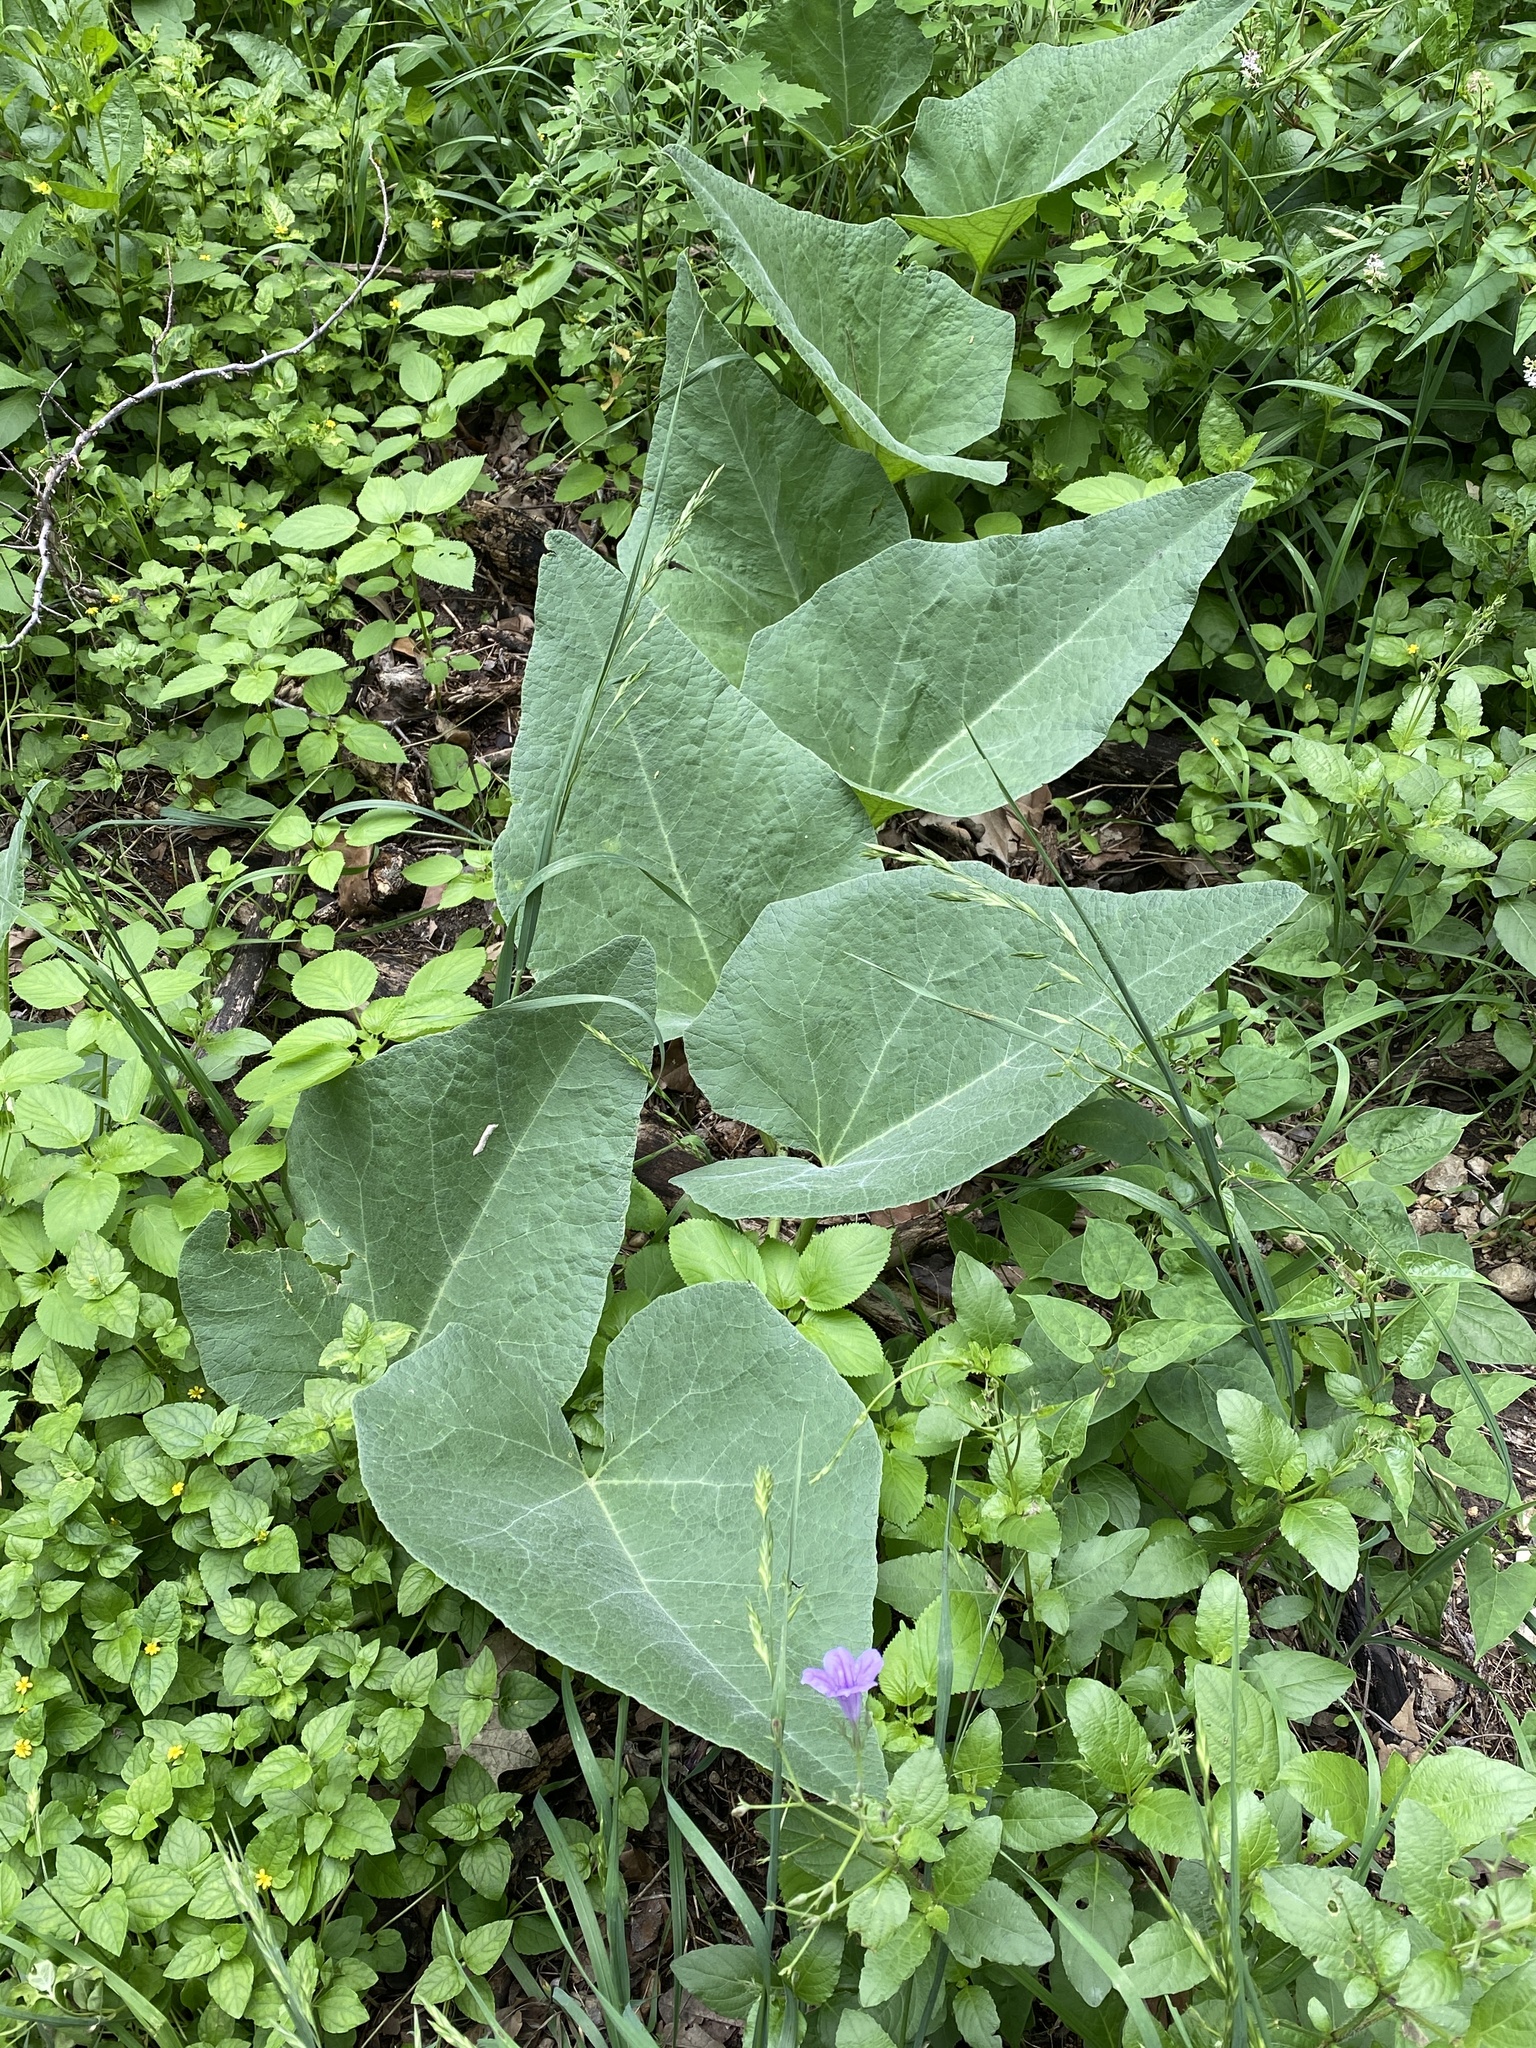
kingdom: Plantae
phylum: Tracheophyta
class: Magnoliopsida
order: Cucurbitales
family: Cucurbitaceae
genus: Cucurbita
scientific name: Cucurbita foetidissima
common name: Buffalo gourd
